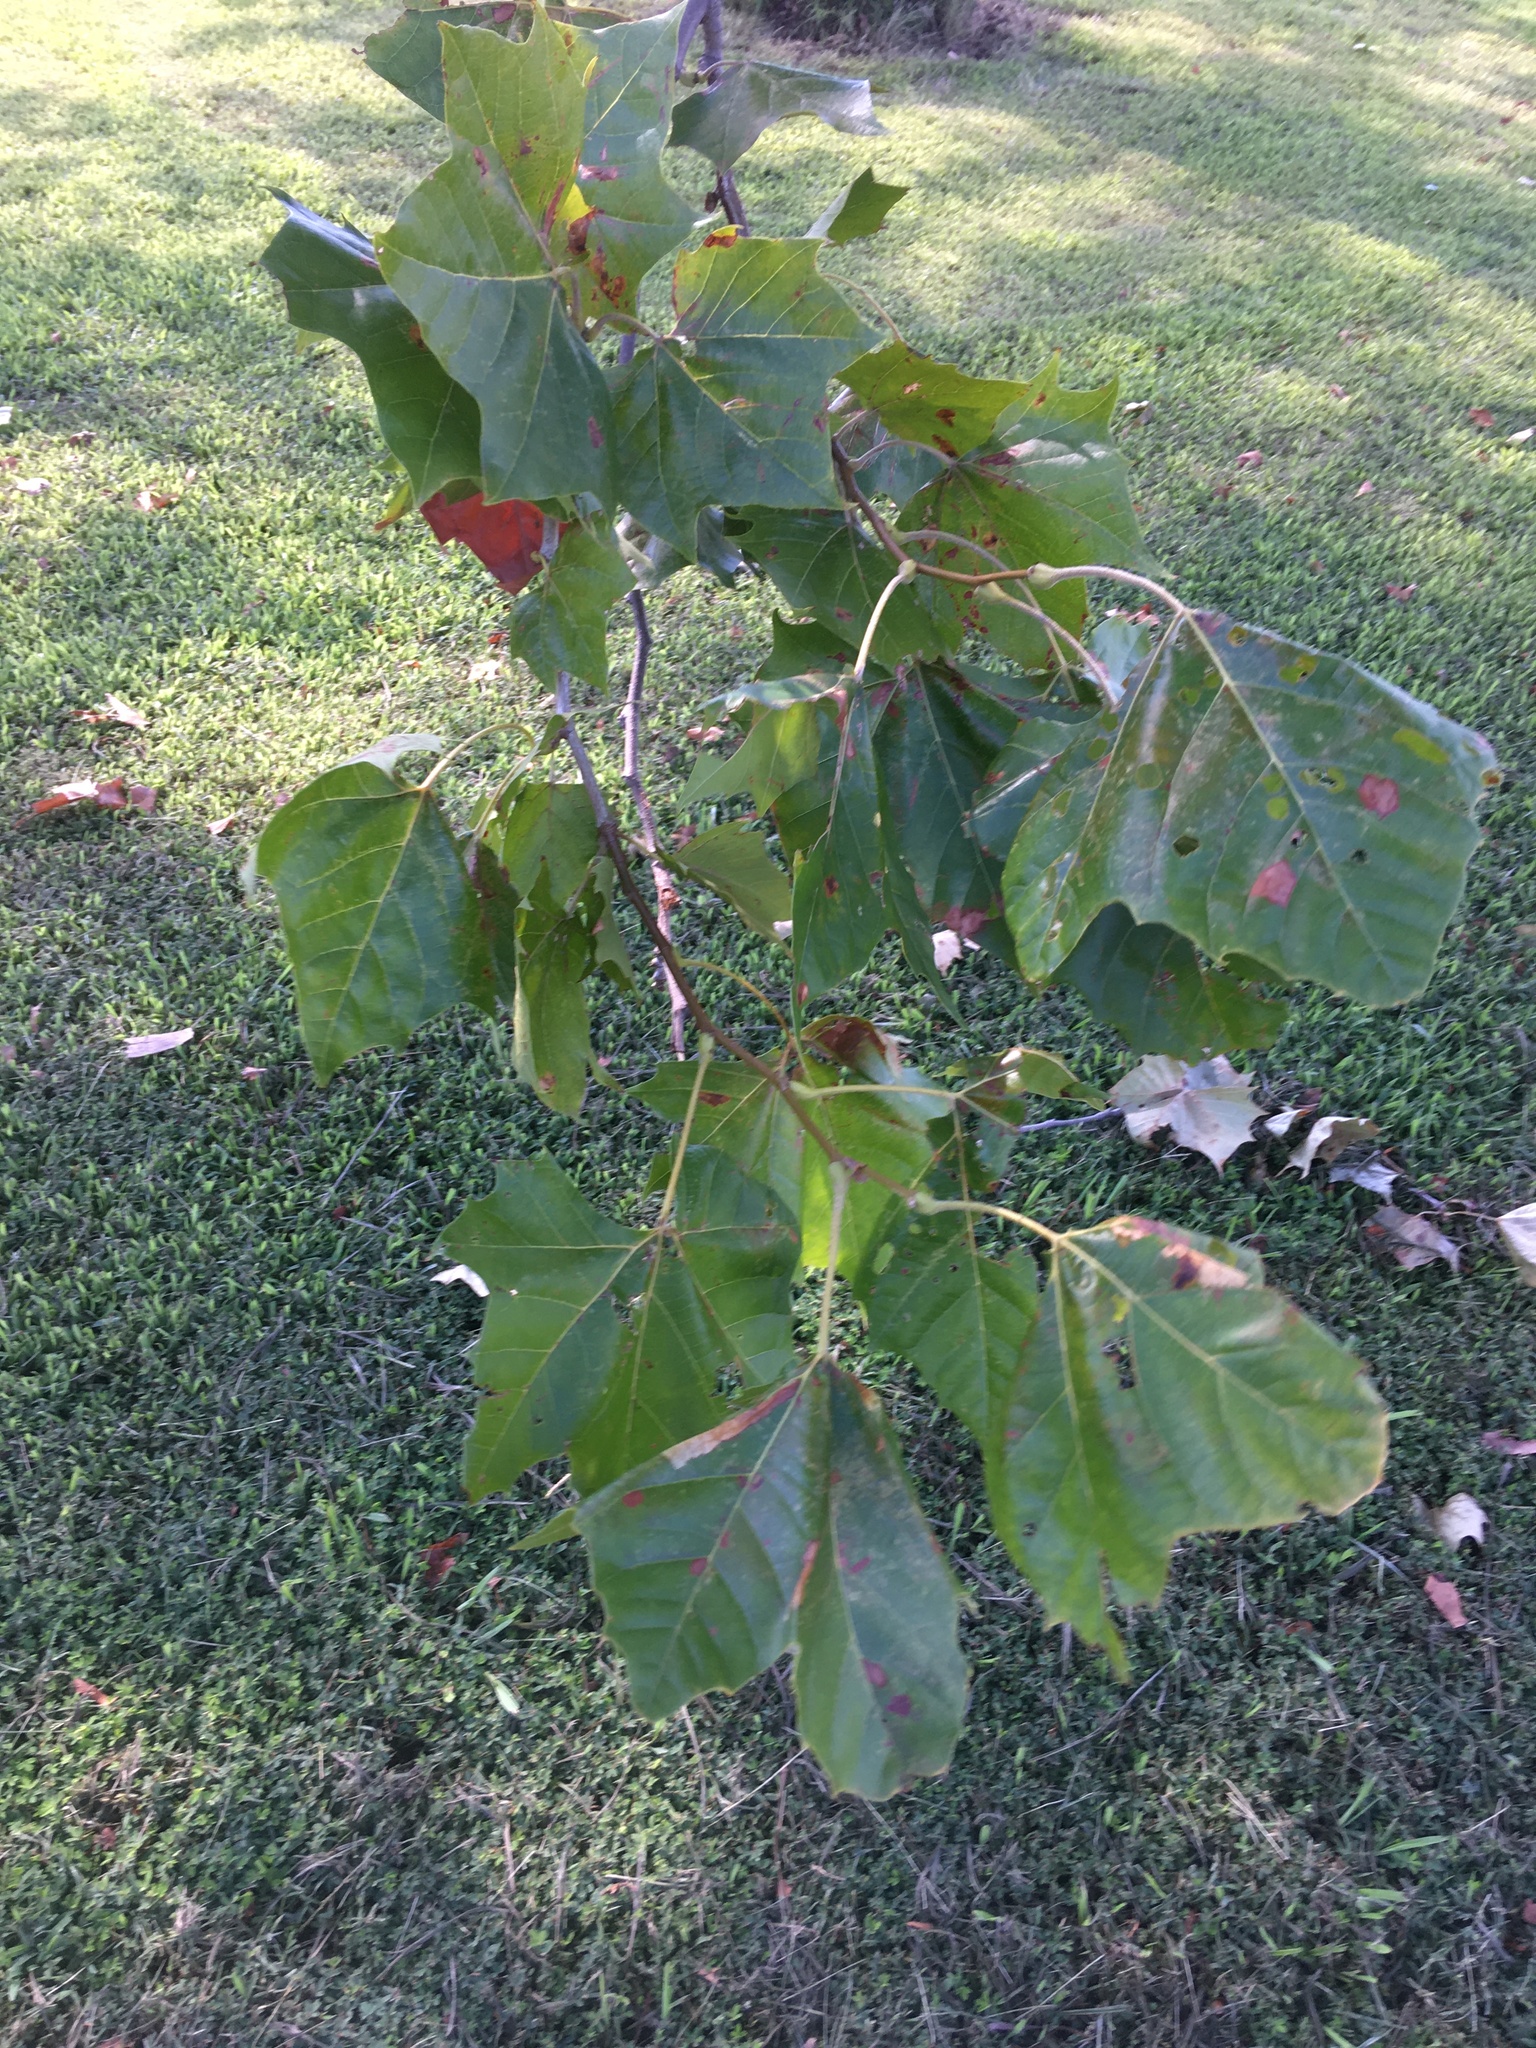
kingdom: Plantae
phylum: Tracheophyta
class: Magnoliopsida
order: Proteales
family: Platanaceae
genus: Platanus
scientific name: Platanus occidentalis
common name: American sycamore
